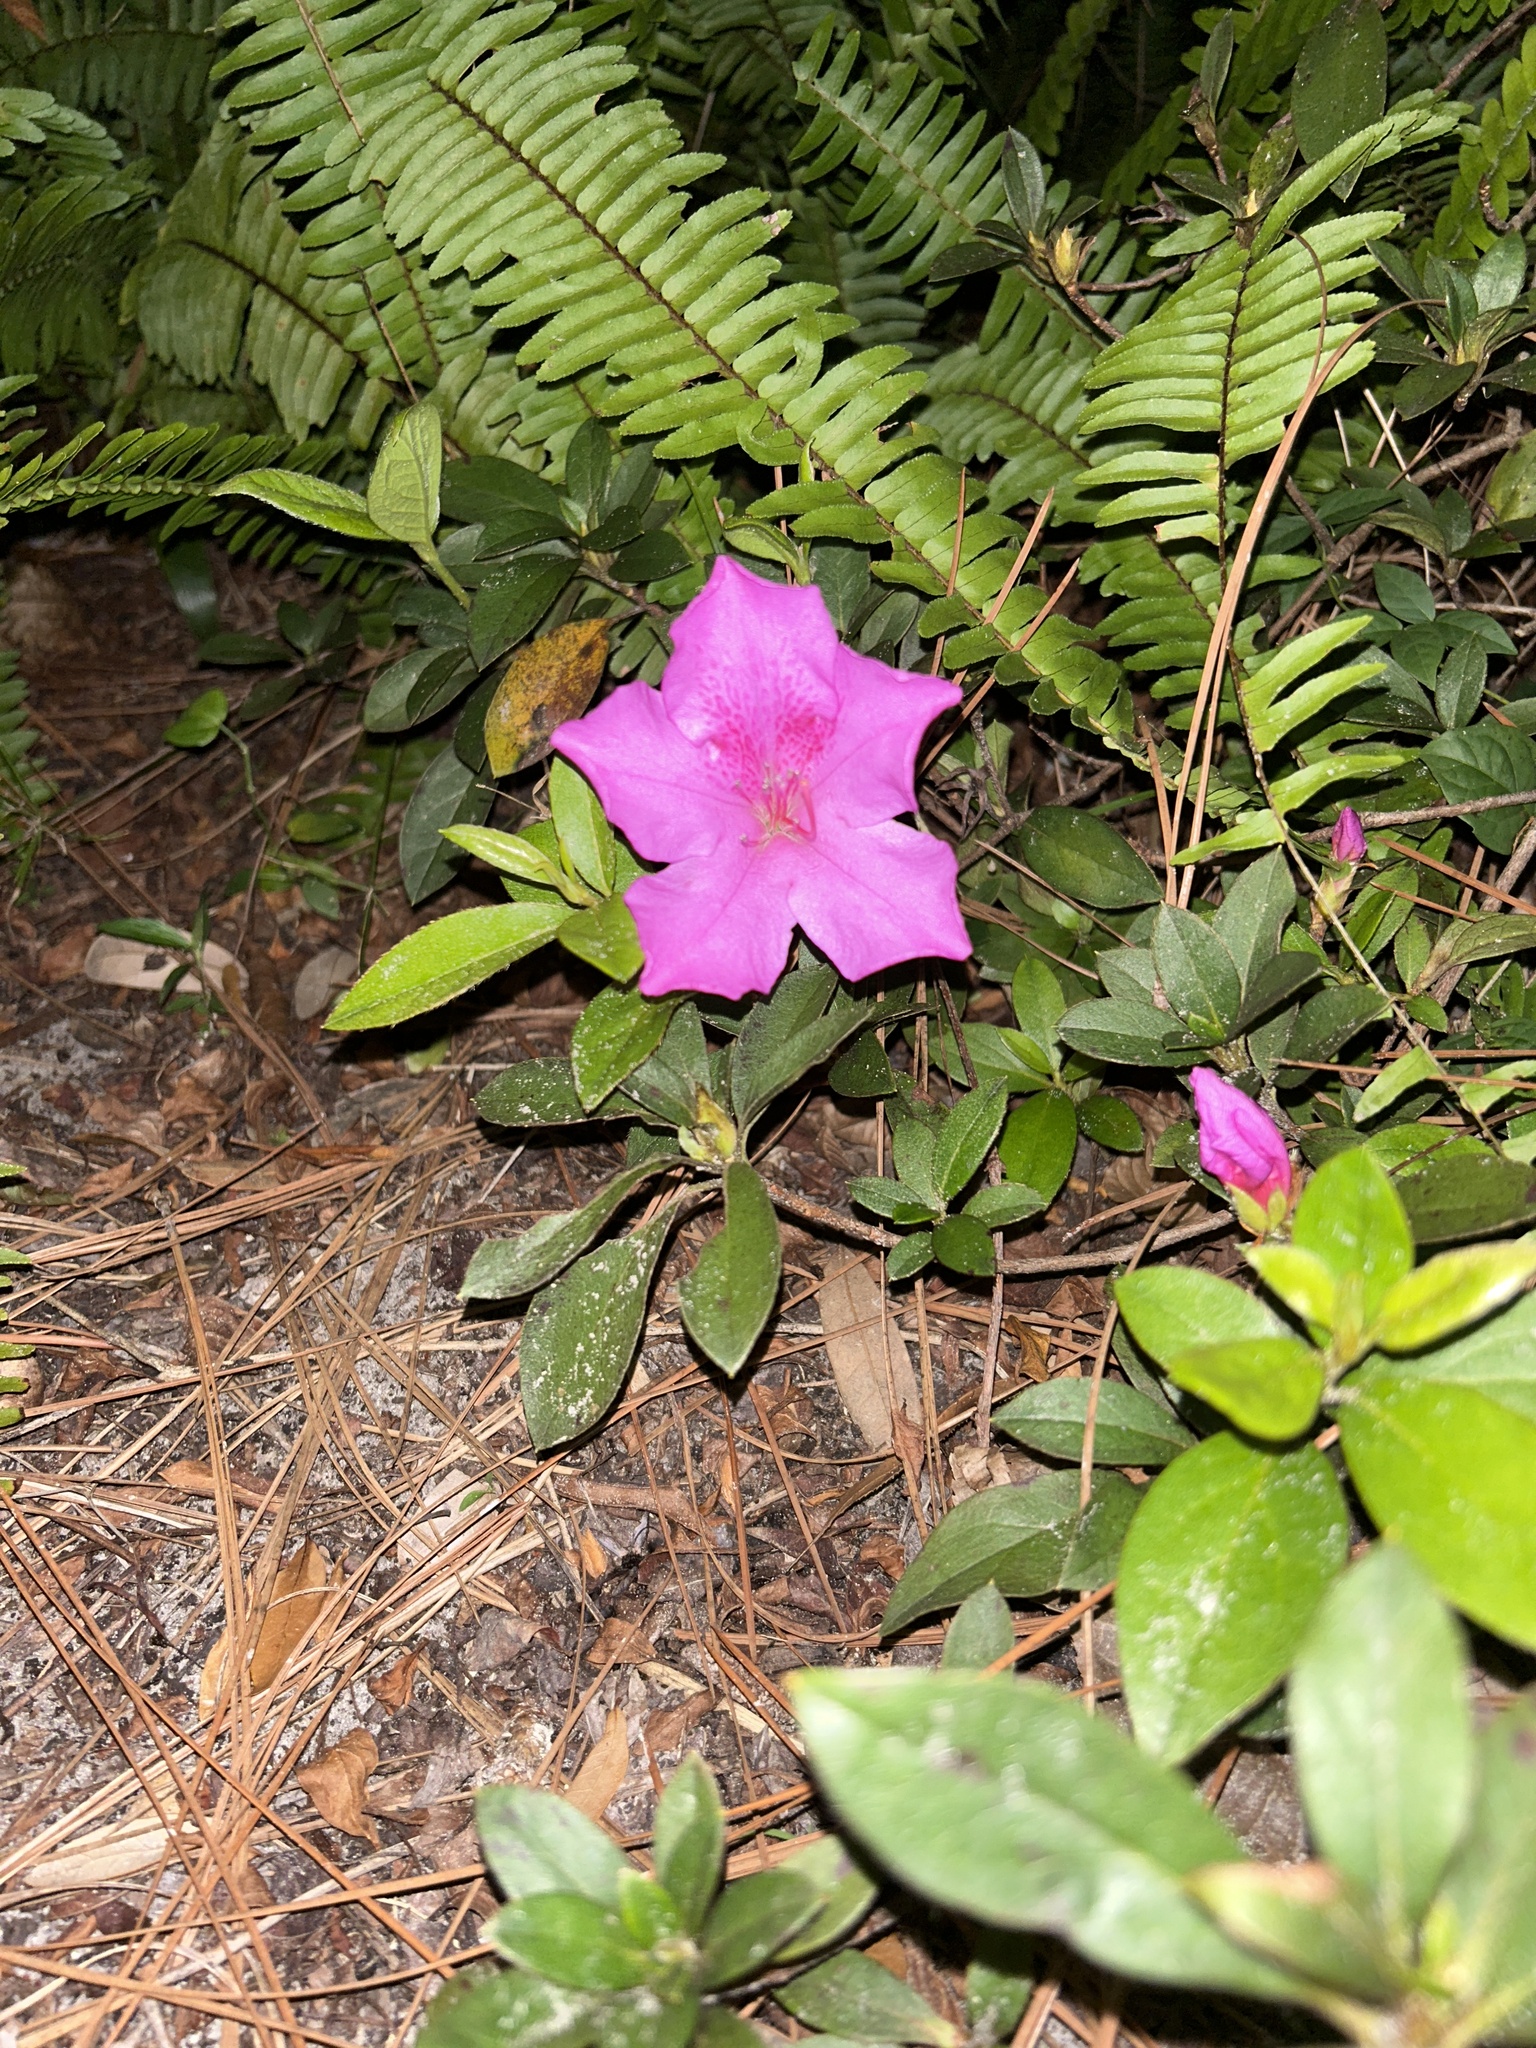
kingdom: Plantae
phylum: Tracheophyta
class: Magnoliopsida
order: Ericales
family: Ericaceae
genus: Rhododendron
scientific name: Rhododendron indicum
